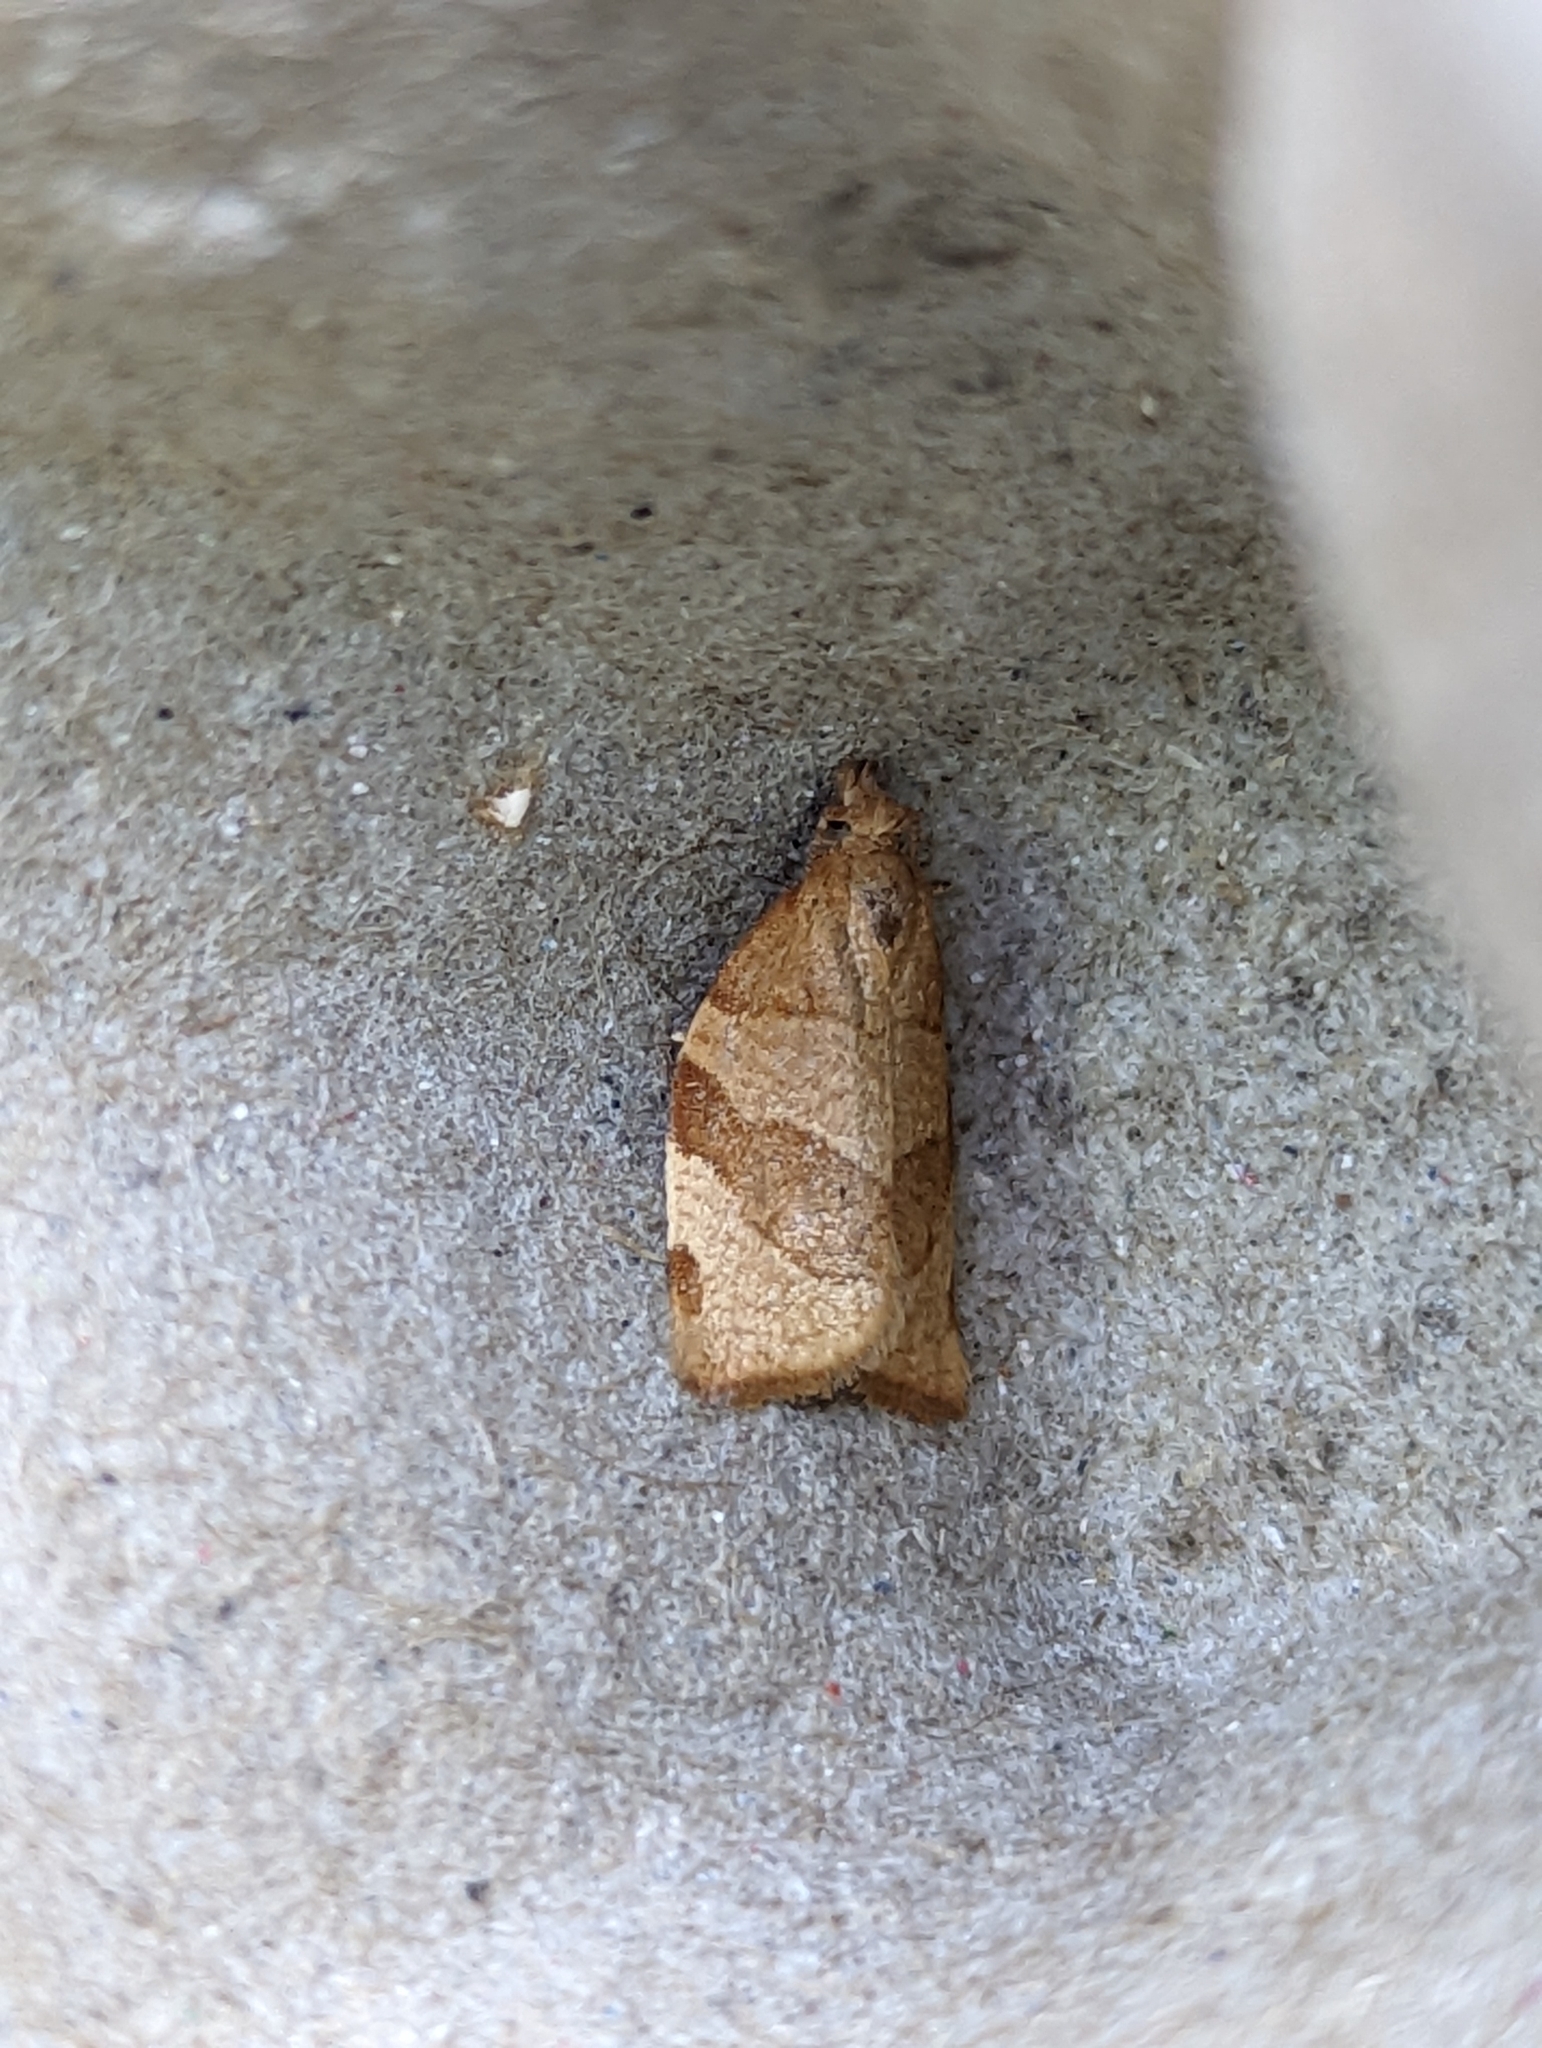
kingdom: Animalia
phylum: Arthropoda
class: Insecta
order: Lepidoptera
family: Tortricidae
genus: Pandemis
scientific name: Pandemis cerasana
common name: Barred fruit-tree tortrix
